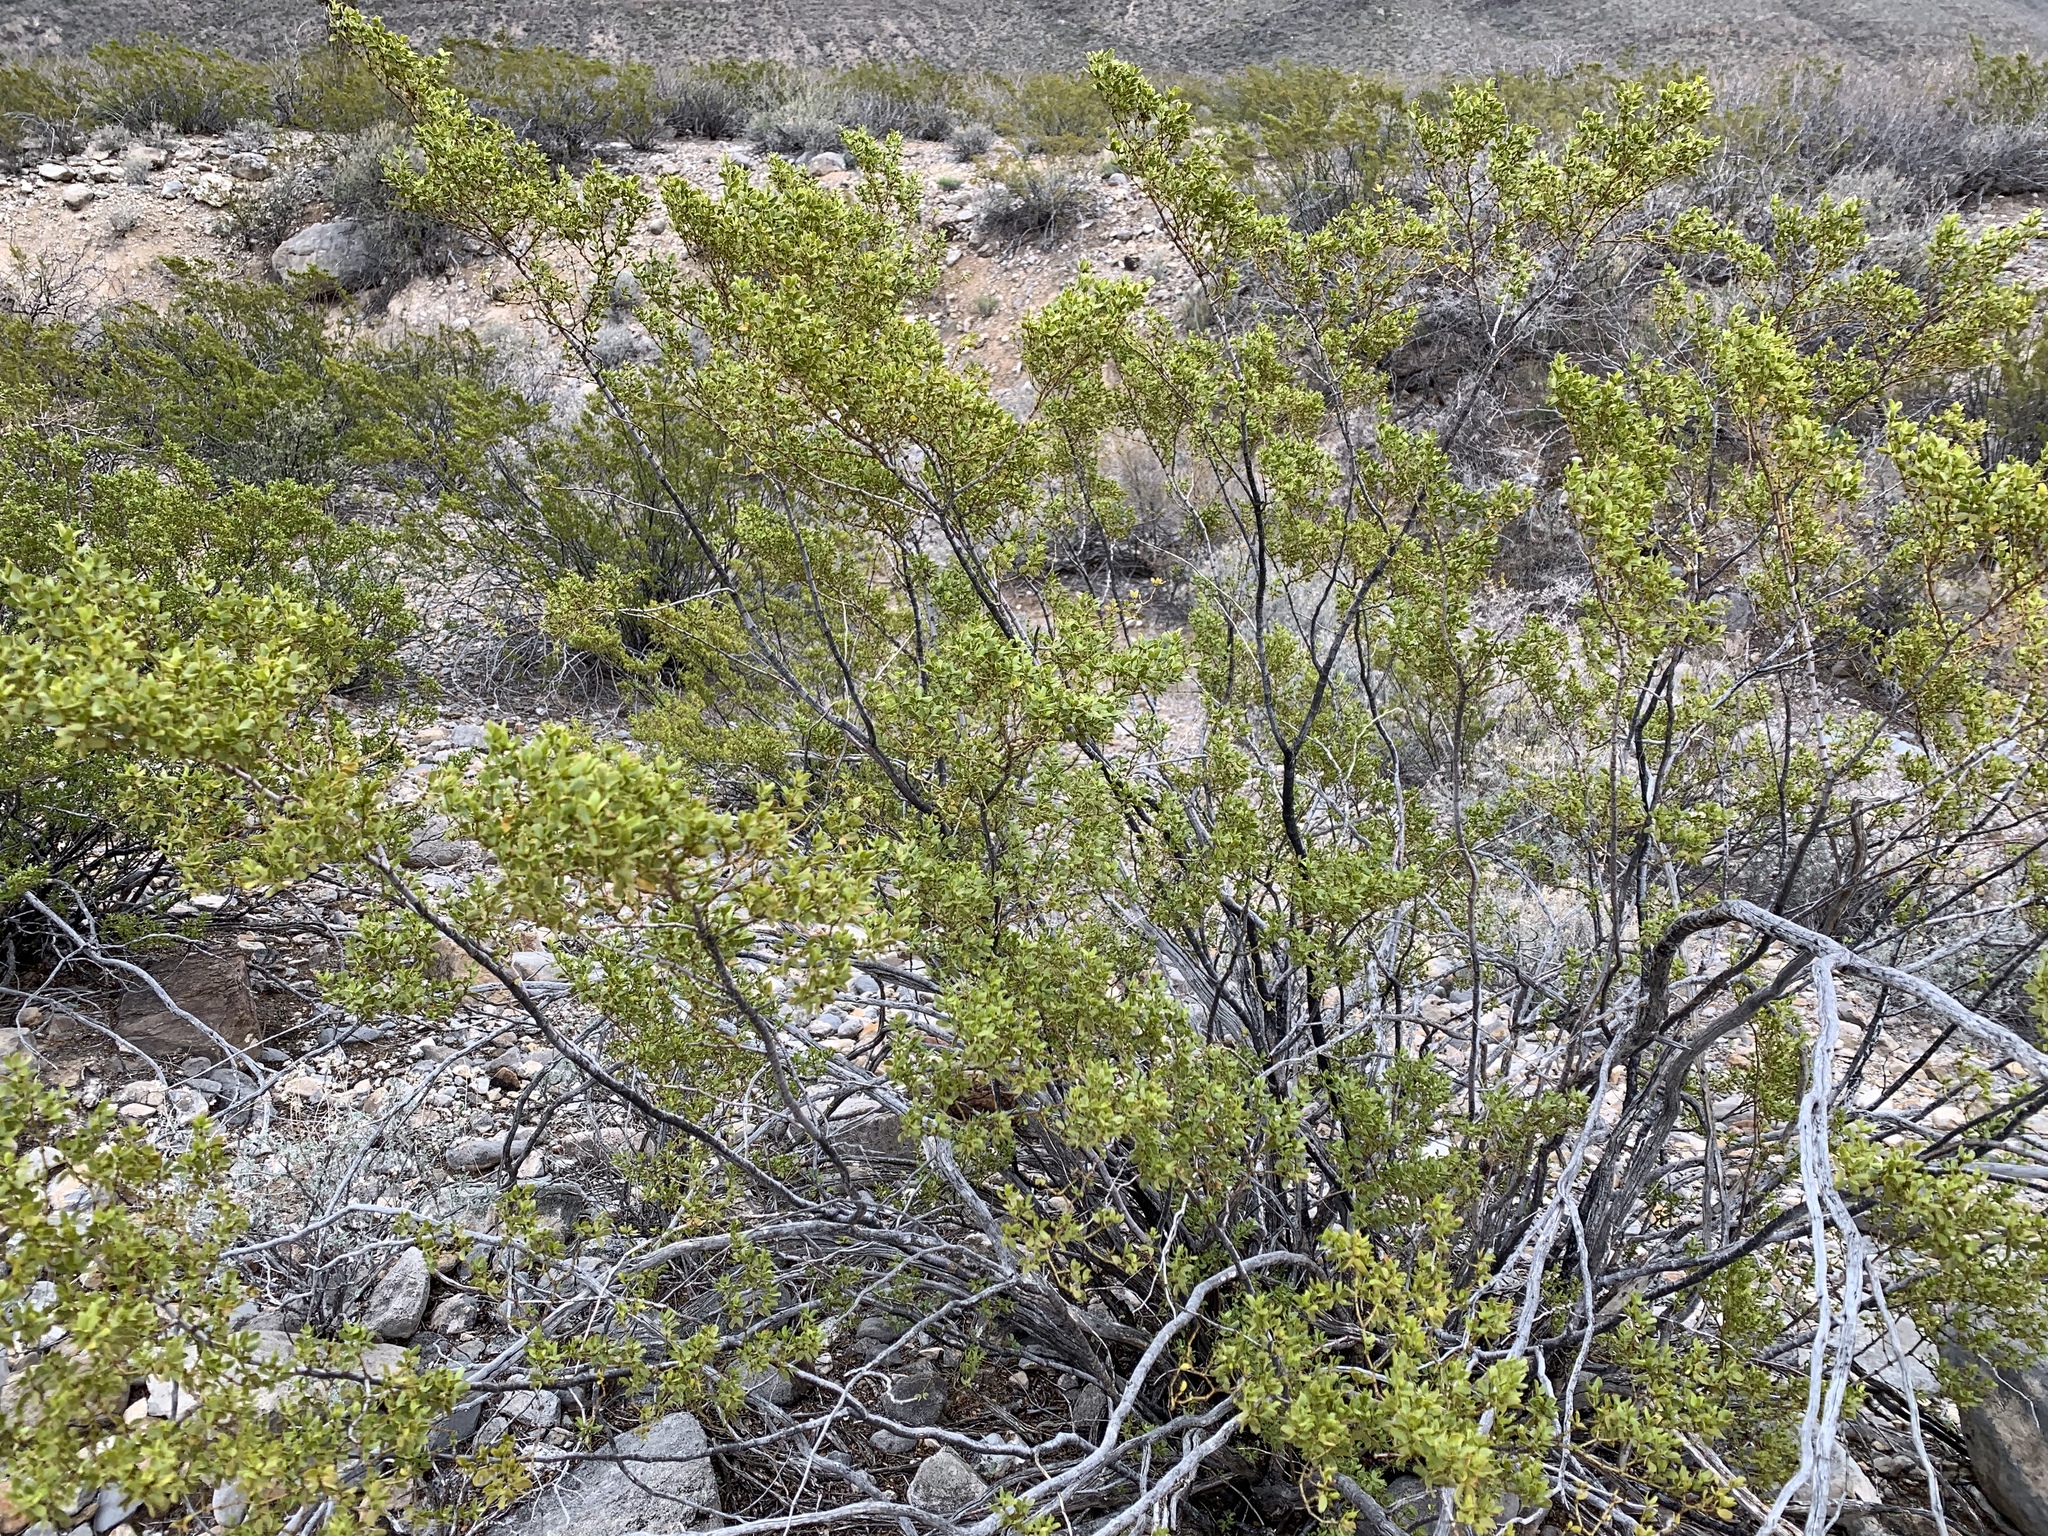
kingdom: Plantae
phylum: Tracheophyta
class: Magnoliopsida
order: Zygophyllales
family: Zygophyllaceae
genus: Larrea
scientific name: Larrea tridentata
